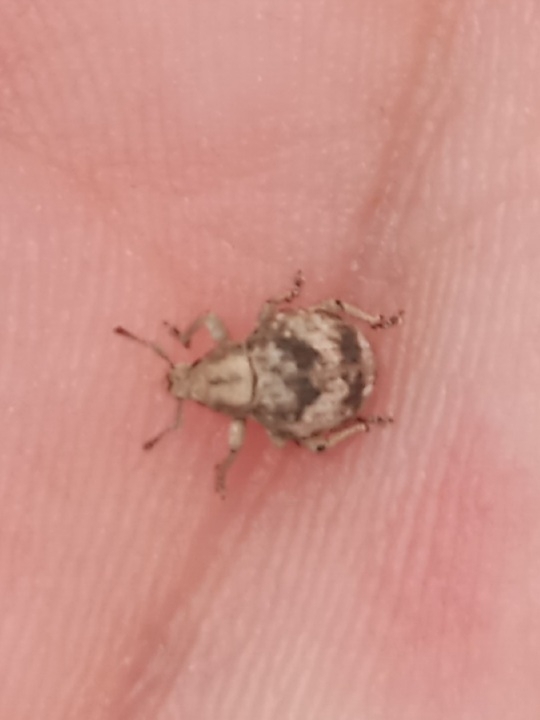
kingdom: Animalia
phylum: Arthropoda
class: Insecta
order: Coleoptera
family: Curculionidae
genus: Pseudocneorhinus
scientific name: Pseudocneorhinus bifasciatus
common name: Two-banded japanese weevil
